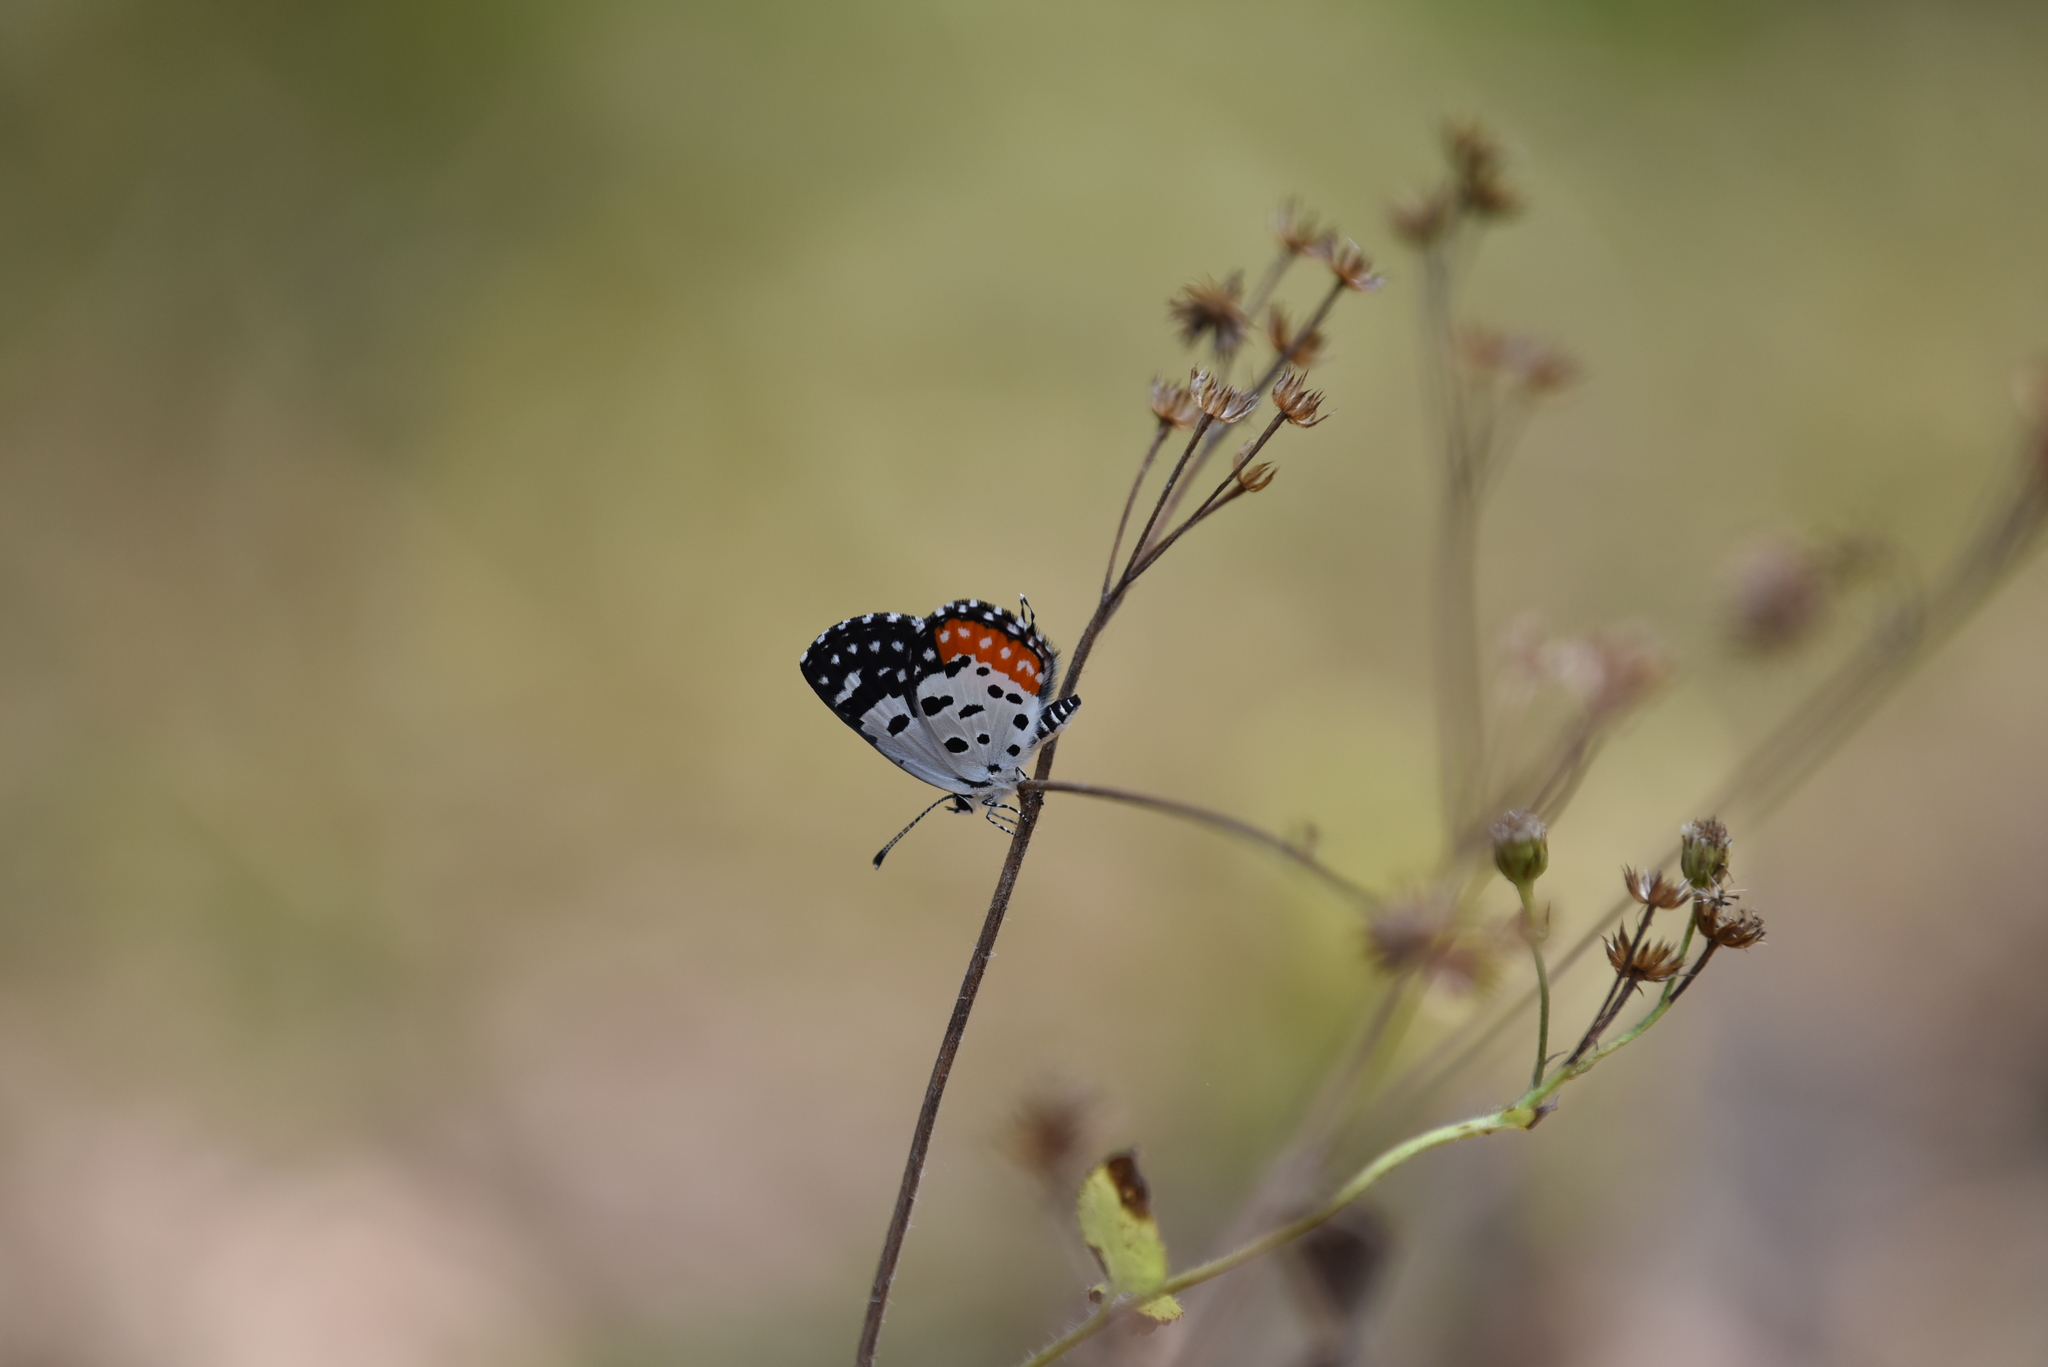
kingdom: Animalia
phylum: Arthropoda
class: Insecta
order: Lepidoptera
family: Lycaenidae
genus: Talicada
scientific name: Talicada nyseus
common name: Red pierrot
